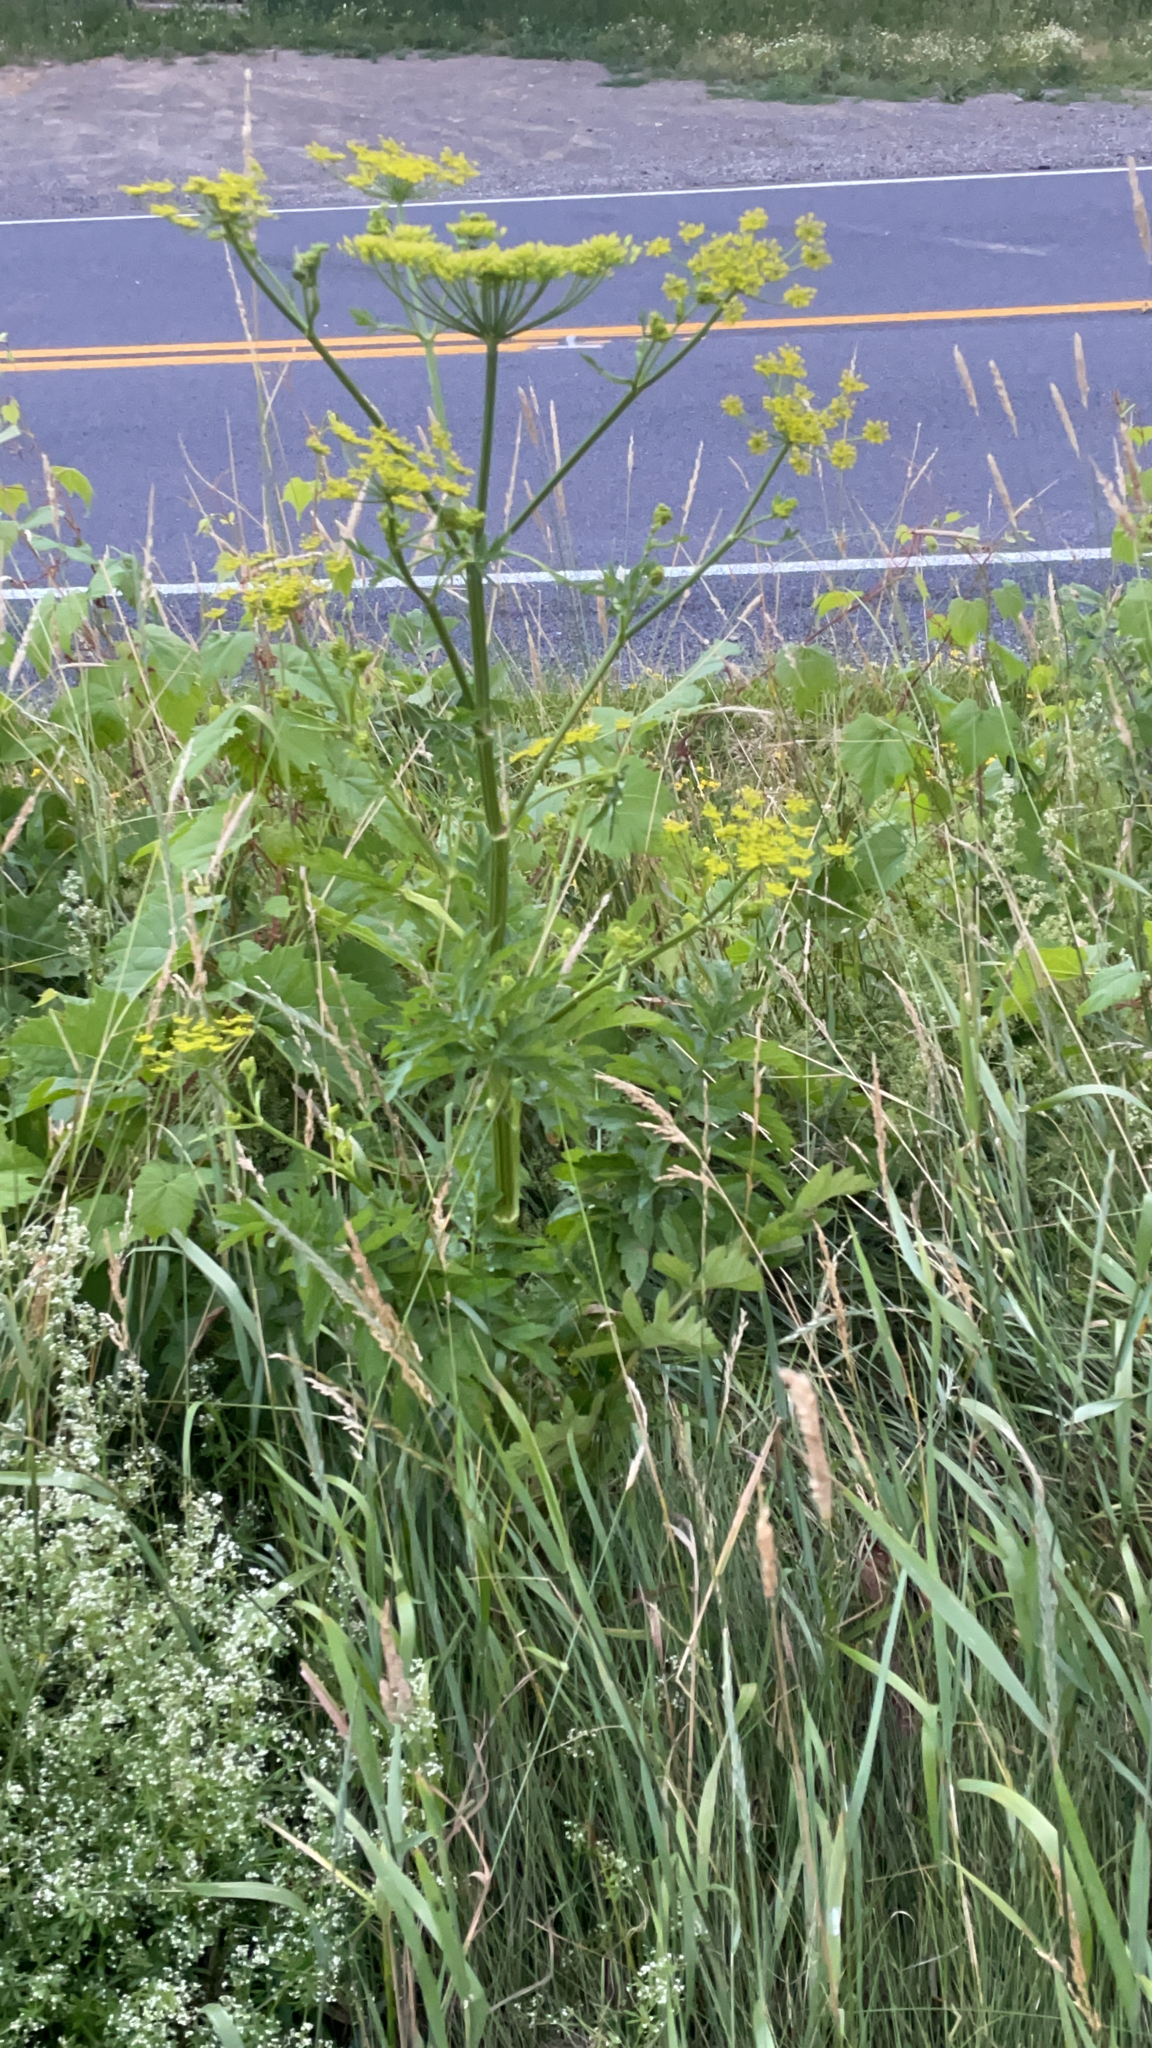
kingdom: Plantae
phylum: Tracheophyta
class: Magnoliopsida
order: Apiales
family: Apiaceae
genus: Pastinaca
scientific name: Pastinaca sativa
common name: Wild parsnip
